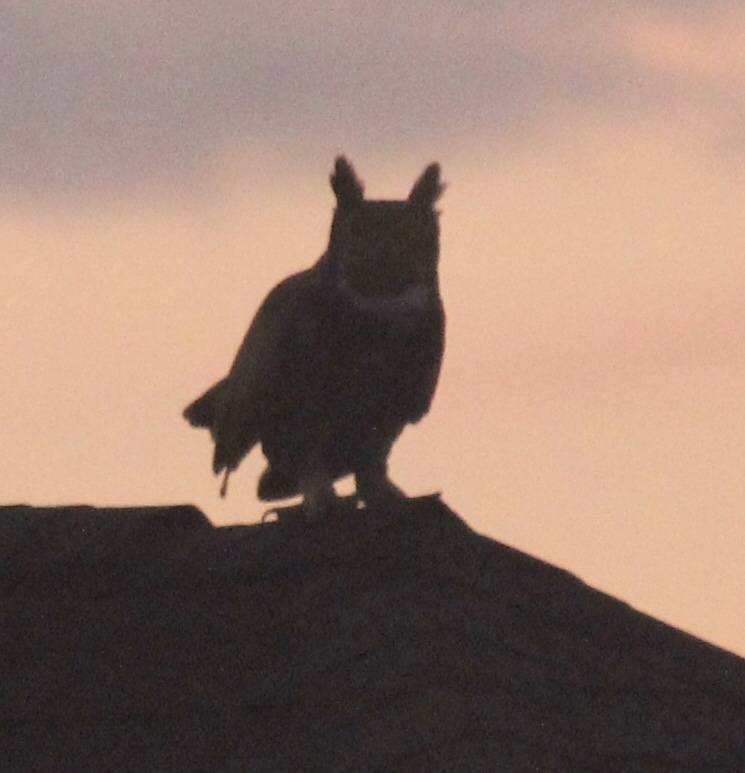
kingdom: Animalia
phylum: Chordata
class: Aves
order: Strigiformes
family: Strigidae
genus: Bubo
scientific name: Bubo virginianus
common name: Great horned owl
